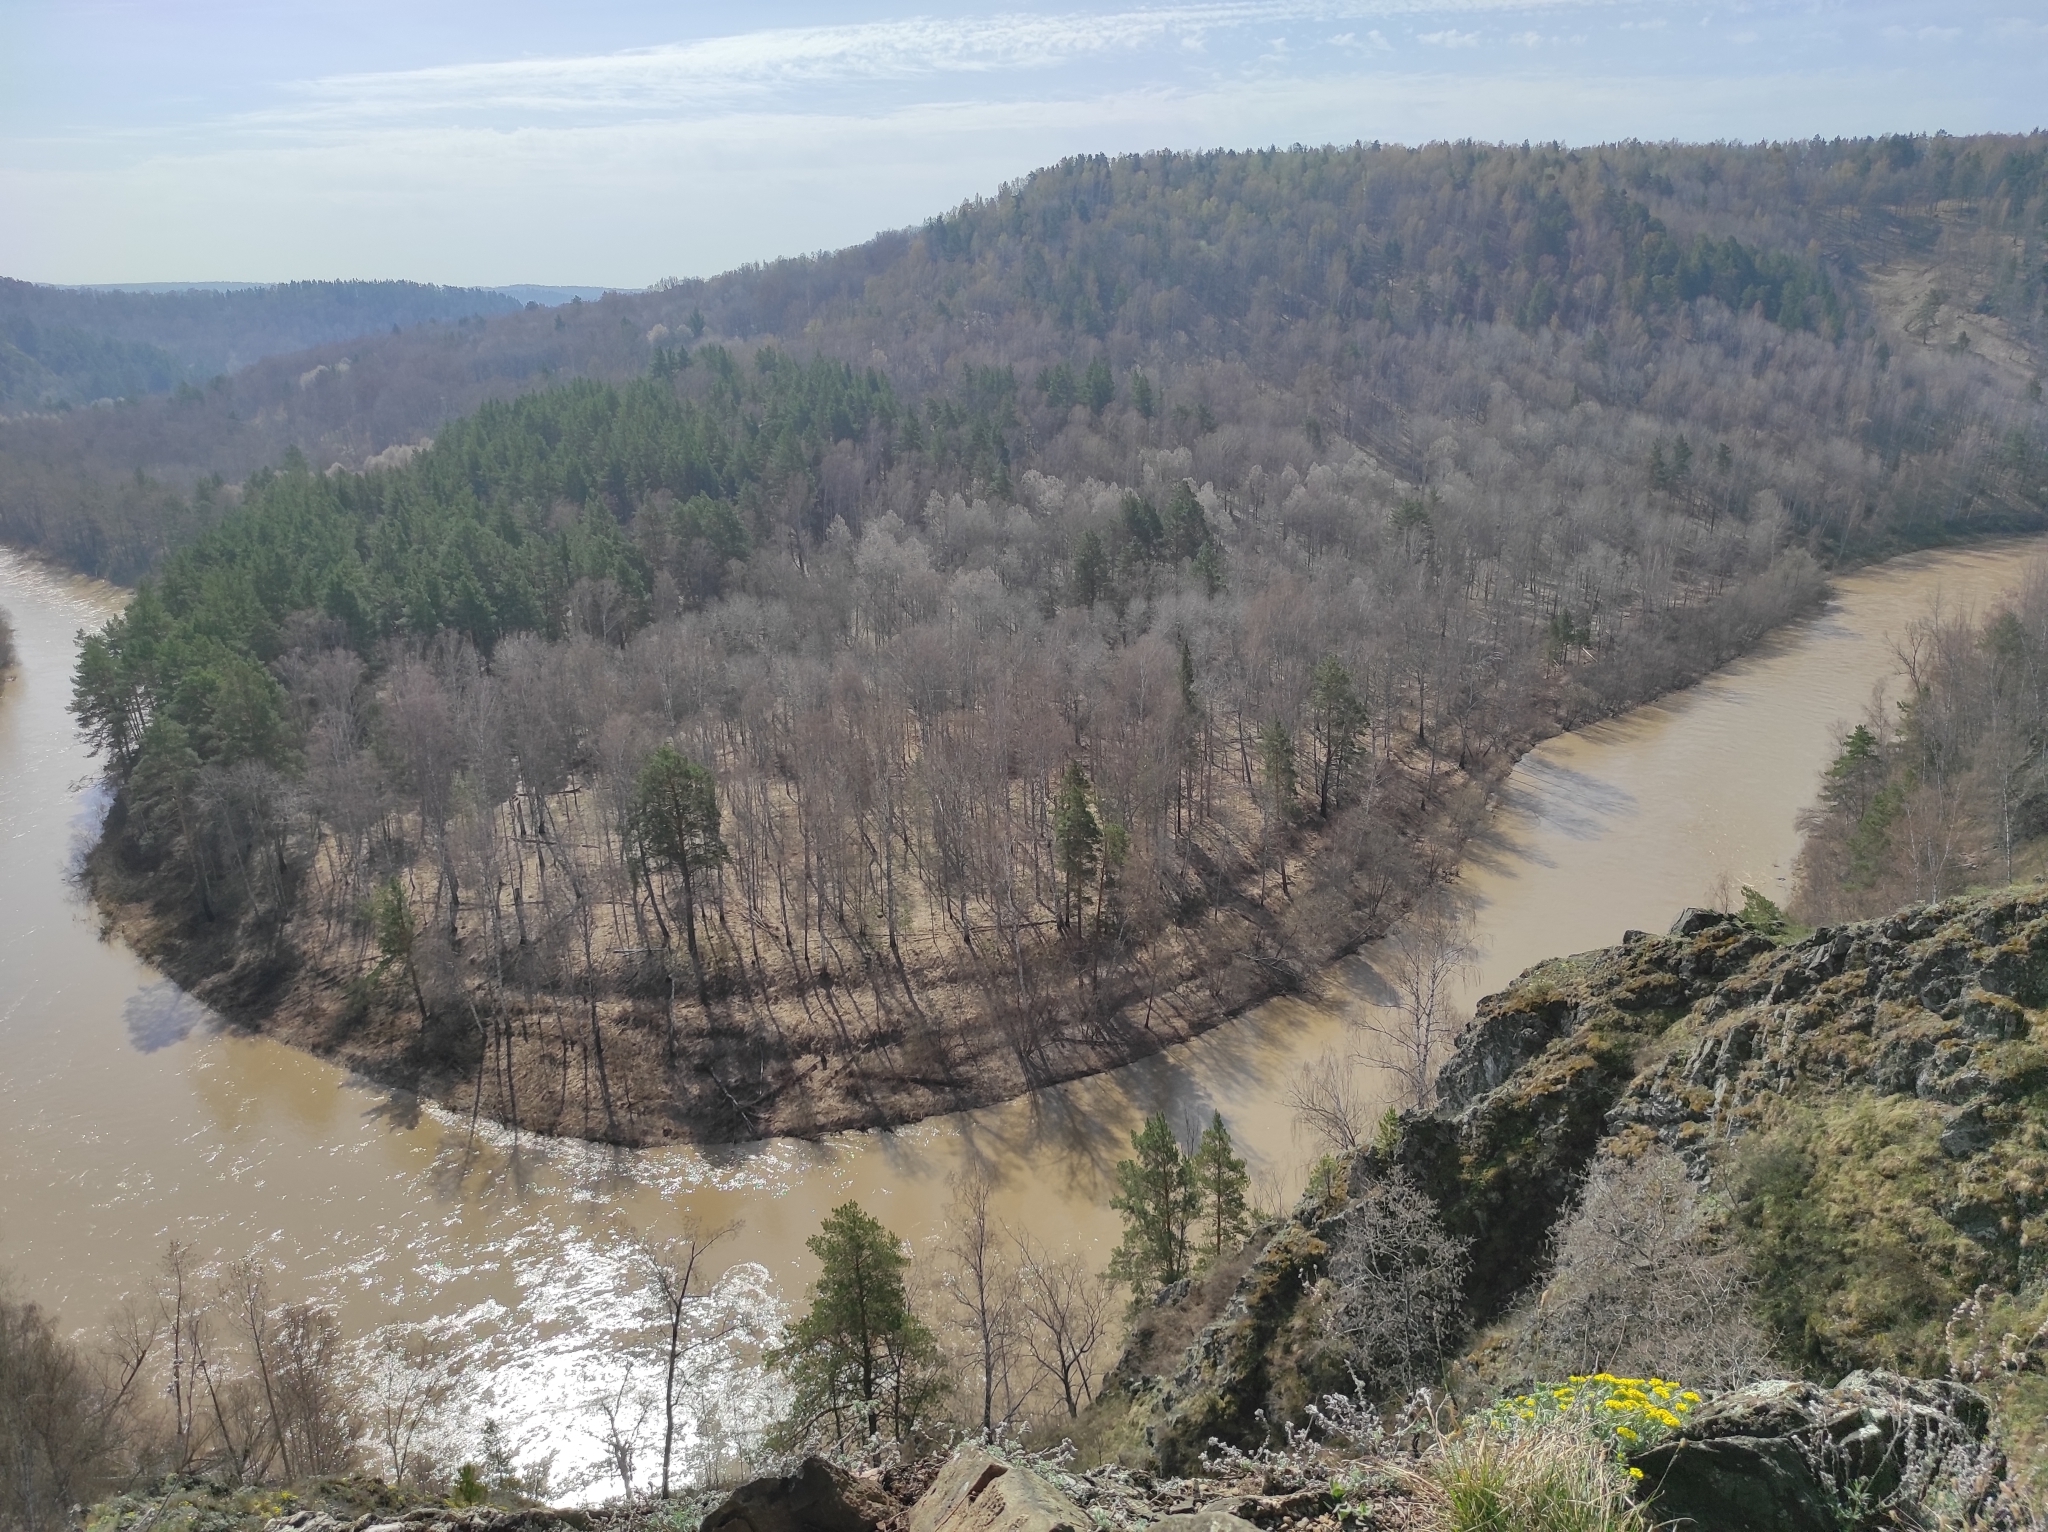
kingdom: Plantae
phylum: Tracheophyta
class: Pinopsida
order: Pinales
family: Pinaceae
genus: Pinus
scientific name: Pinus sylvestris
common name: Scots pine
